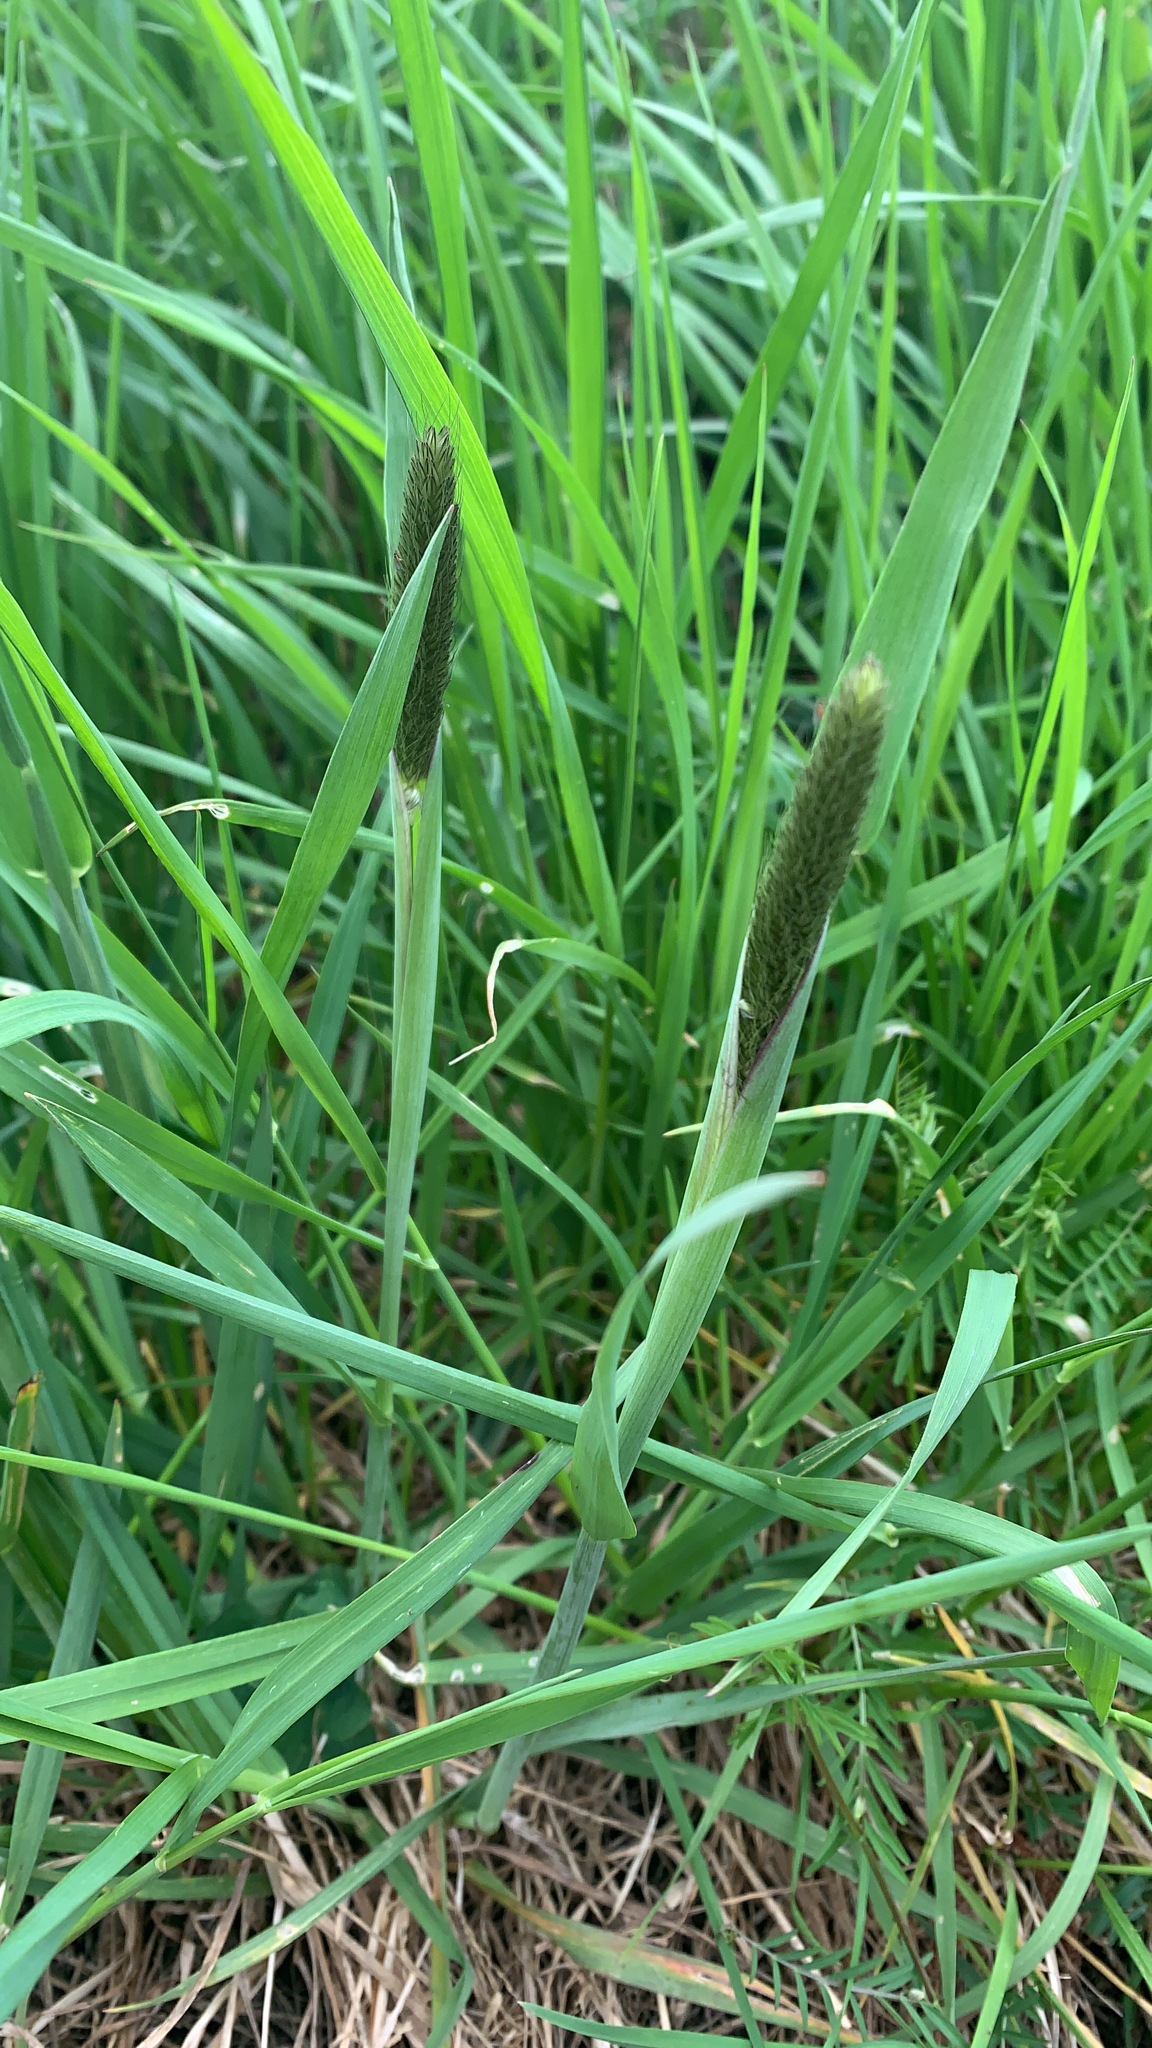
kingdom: Plantae
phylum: Tracheophyta
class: Liliopsida
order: Poales
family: Poaceae
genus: Alopecurus
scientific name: Alopecurus pratensis
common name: Meadow foxtail
